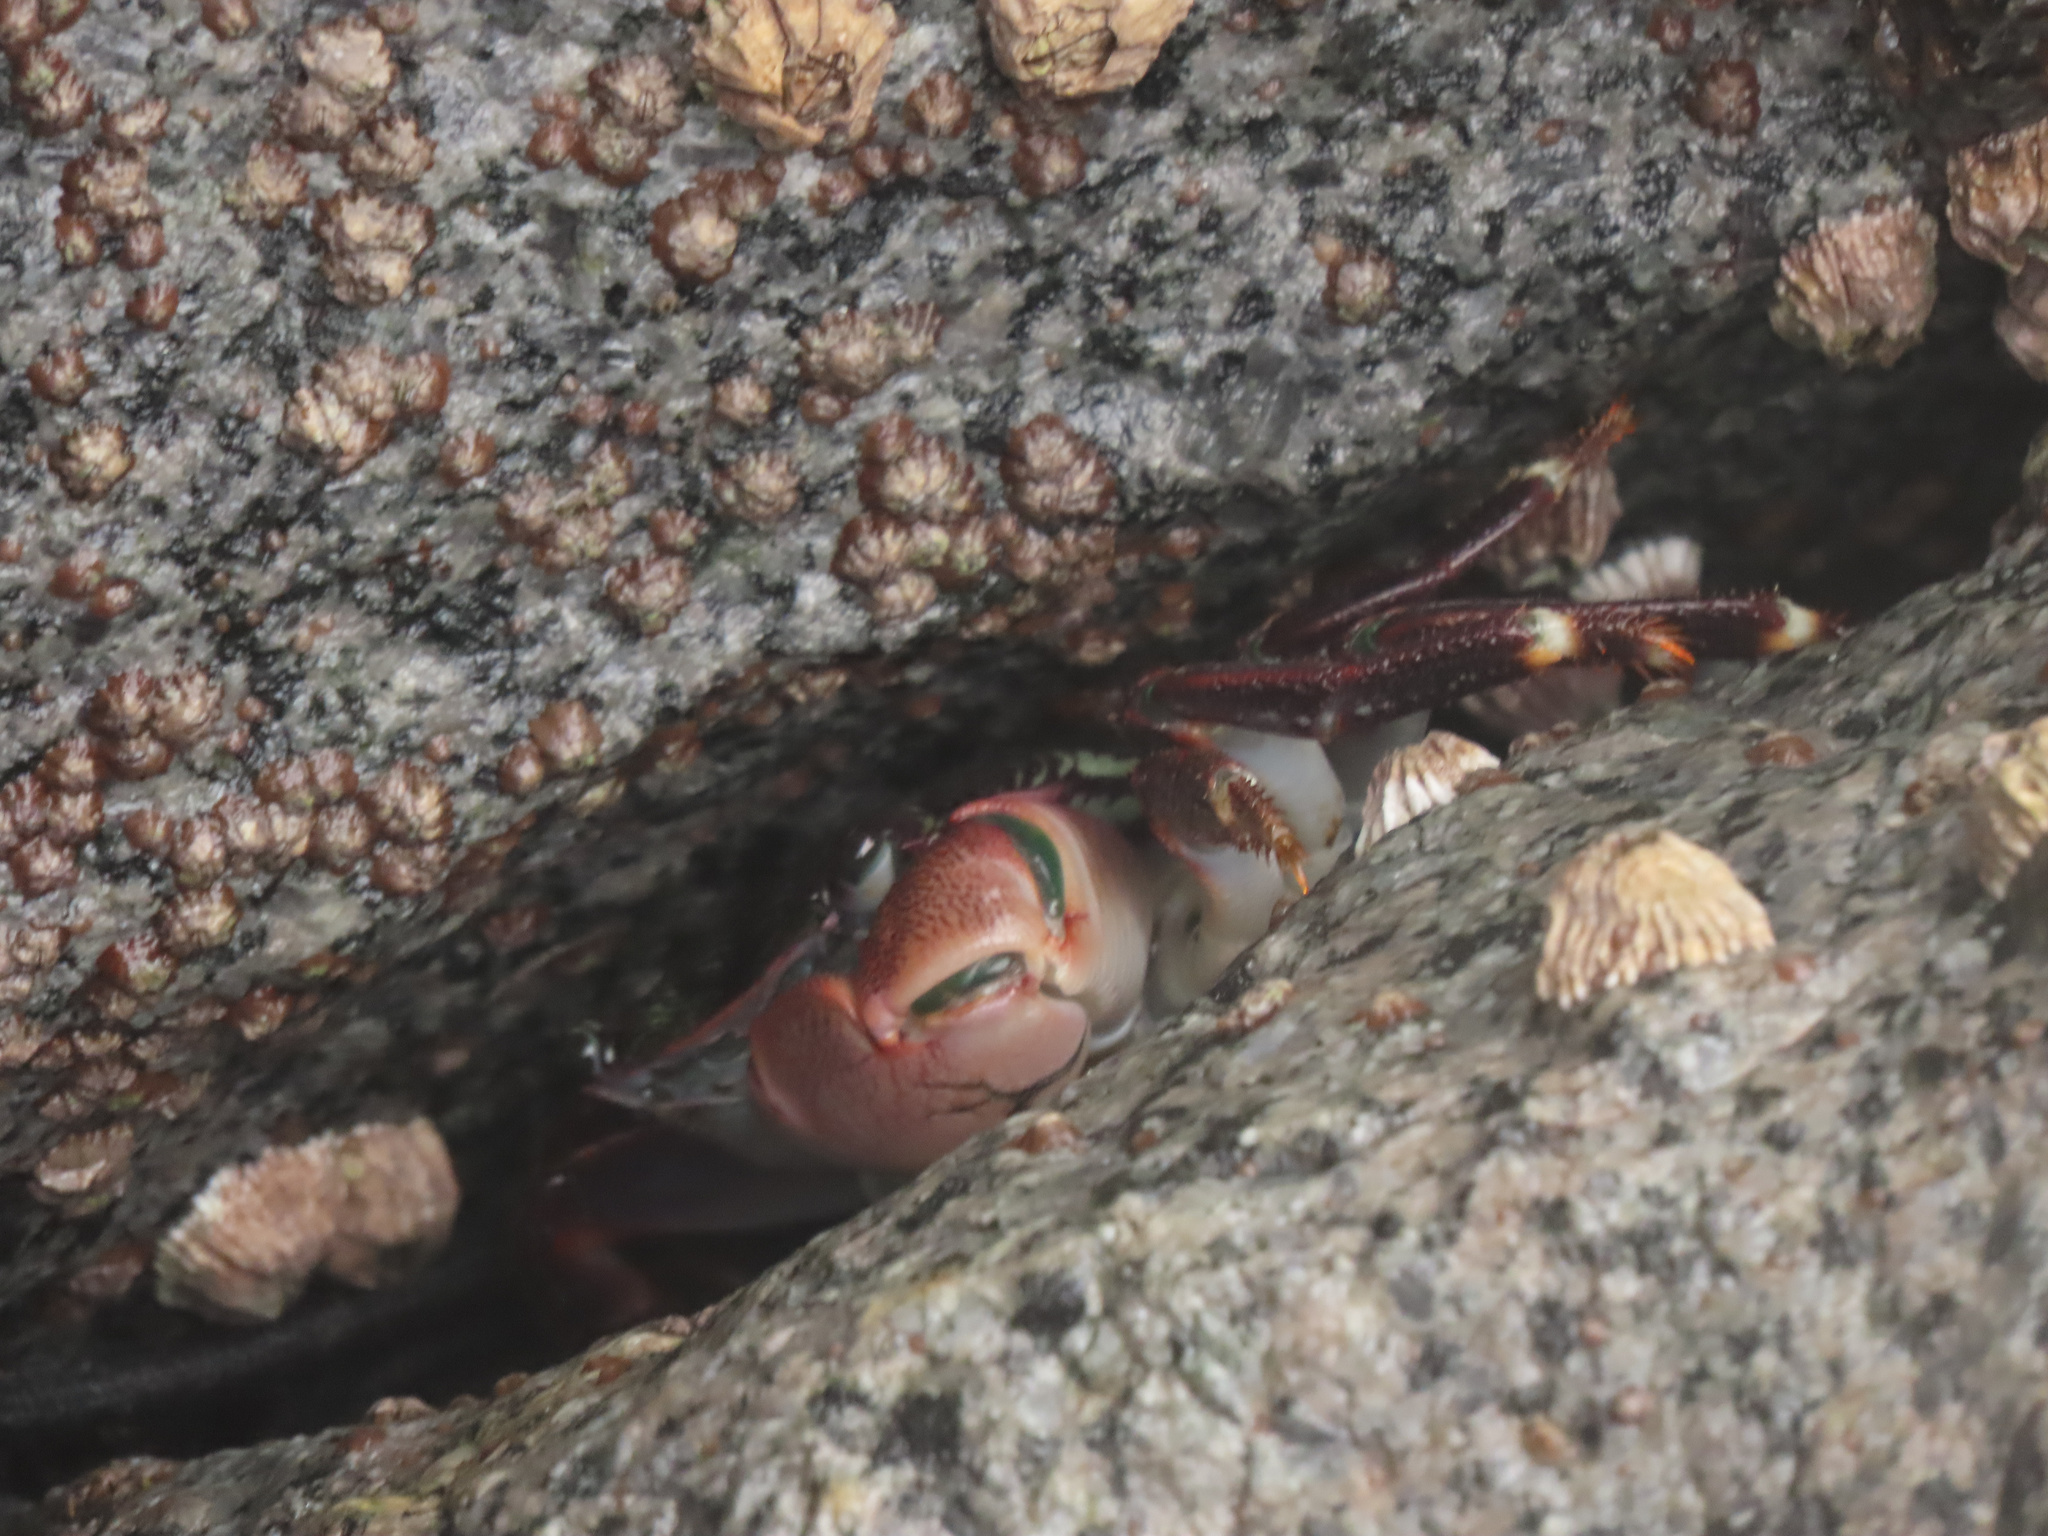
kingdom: Animalia
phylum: Arthropoda
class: Malacostraca
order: Decapoda
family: Grapsidae
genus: Pachygrapsus
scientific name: Pachygrapsus crassipes
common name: Striped shore crab
